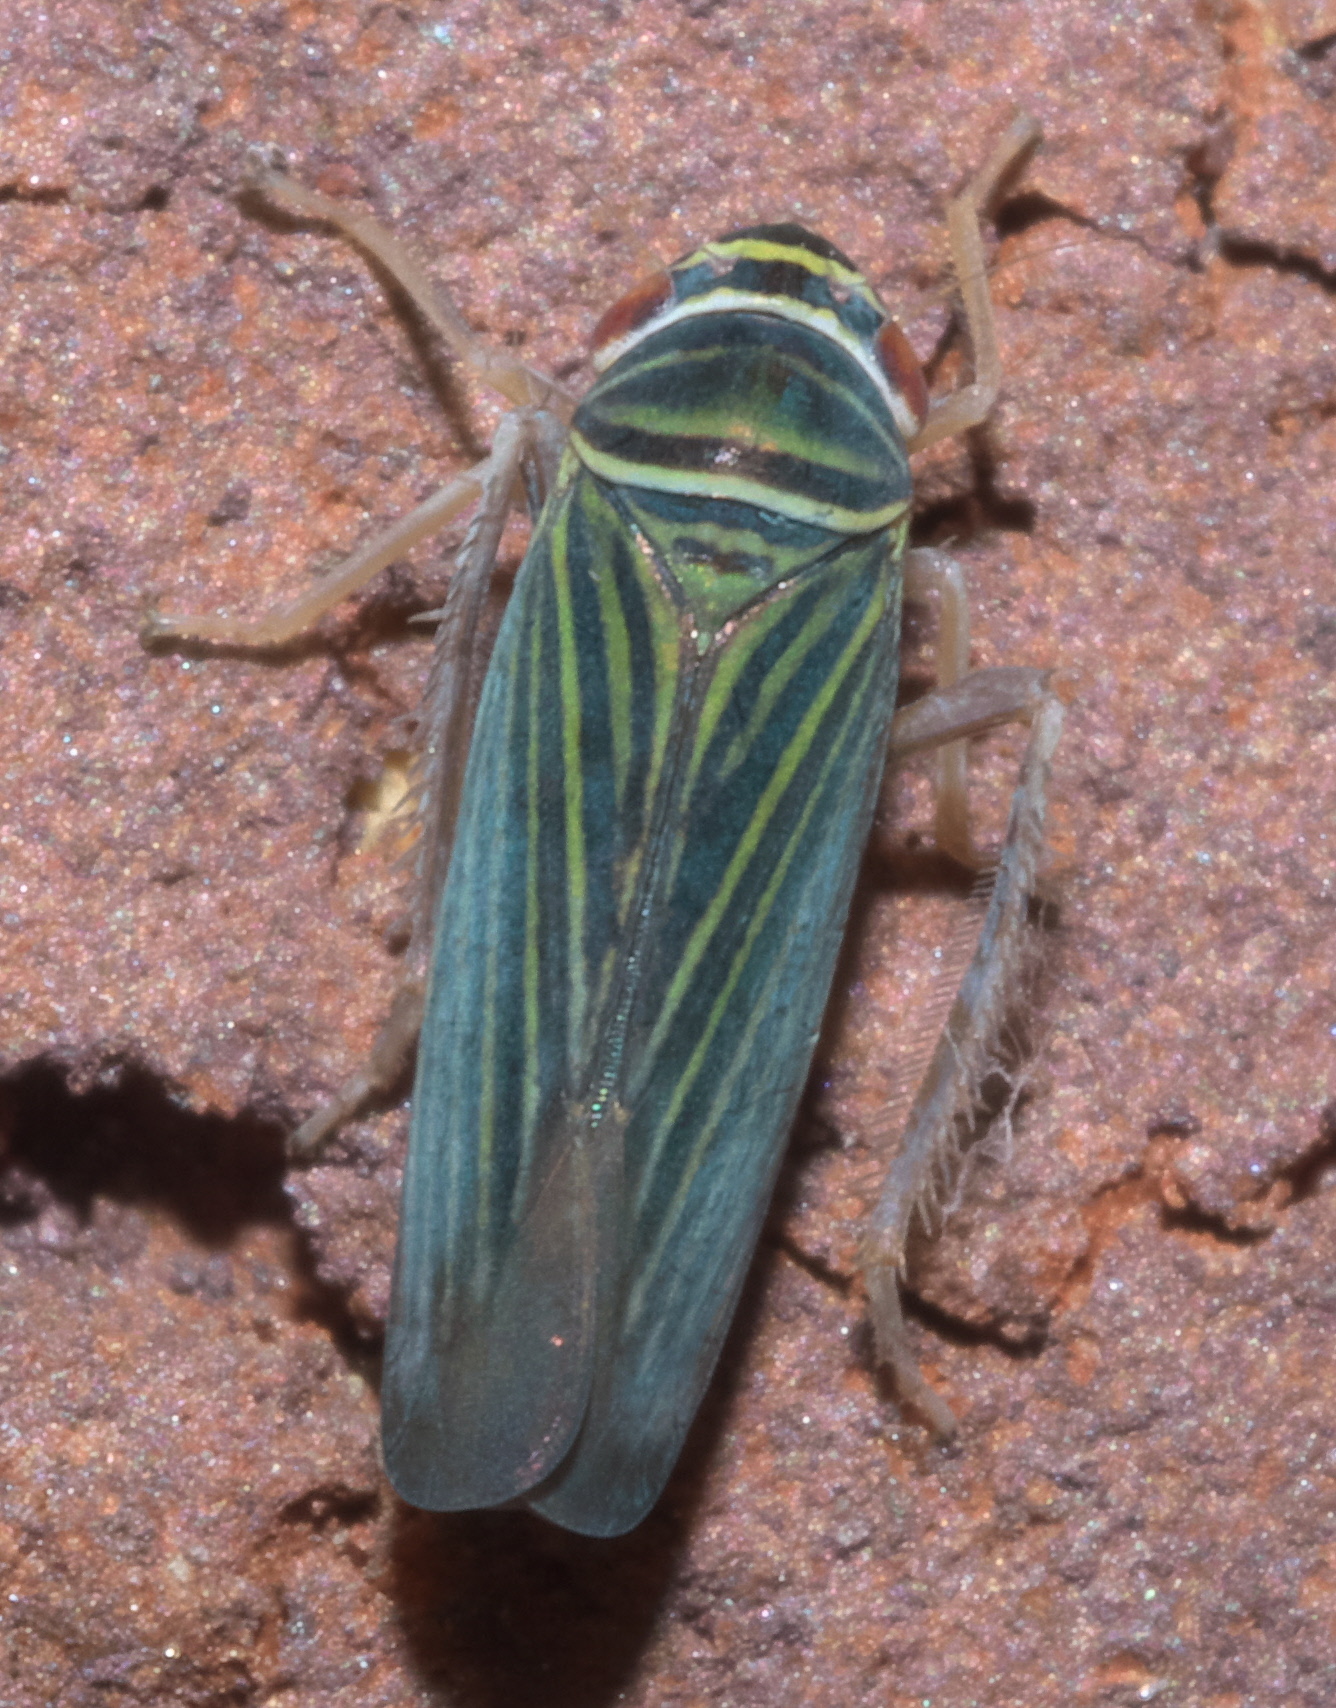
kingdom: Animalia
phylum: Arthropoda
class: Insecta
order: Hemiptera
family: Cicadellidae
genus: Tylozygus
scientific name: Tylozygus bifidus
